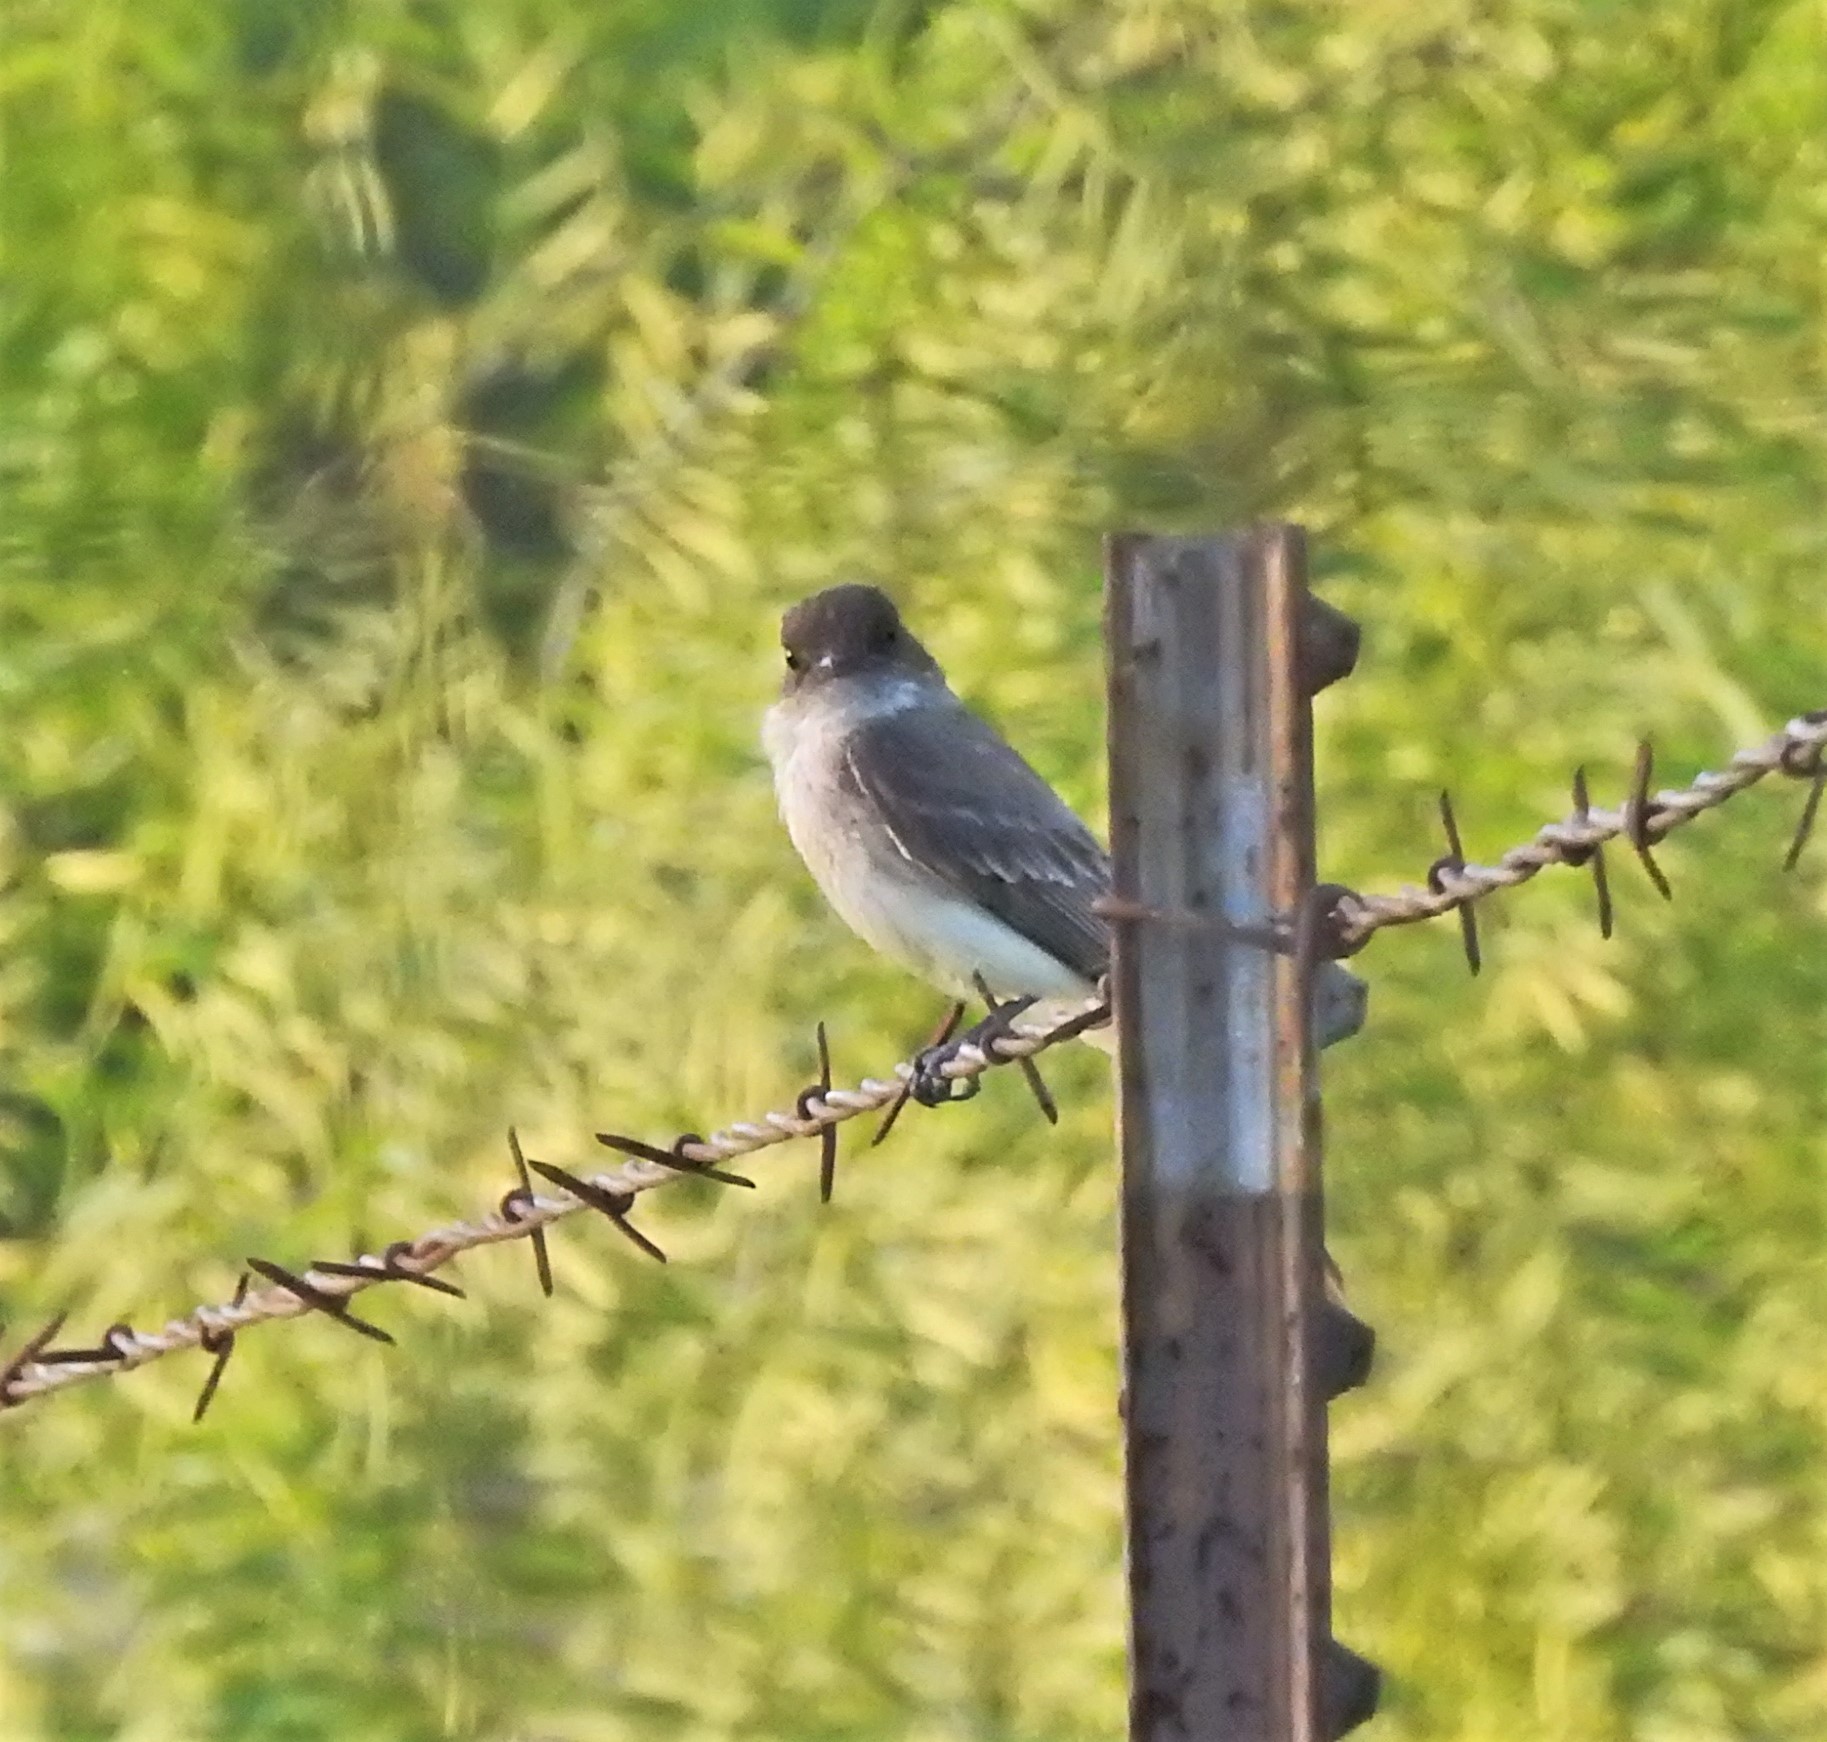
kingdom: Animalia
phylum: Chordata
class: Aves
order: Passeriformes
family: Tyrannidae
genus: Sayornis
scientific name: Sayornis phoebe
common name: Eastern phoebe
